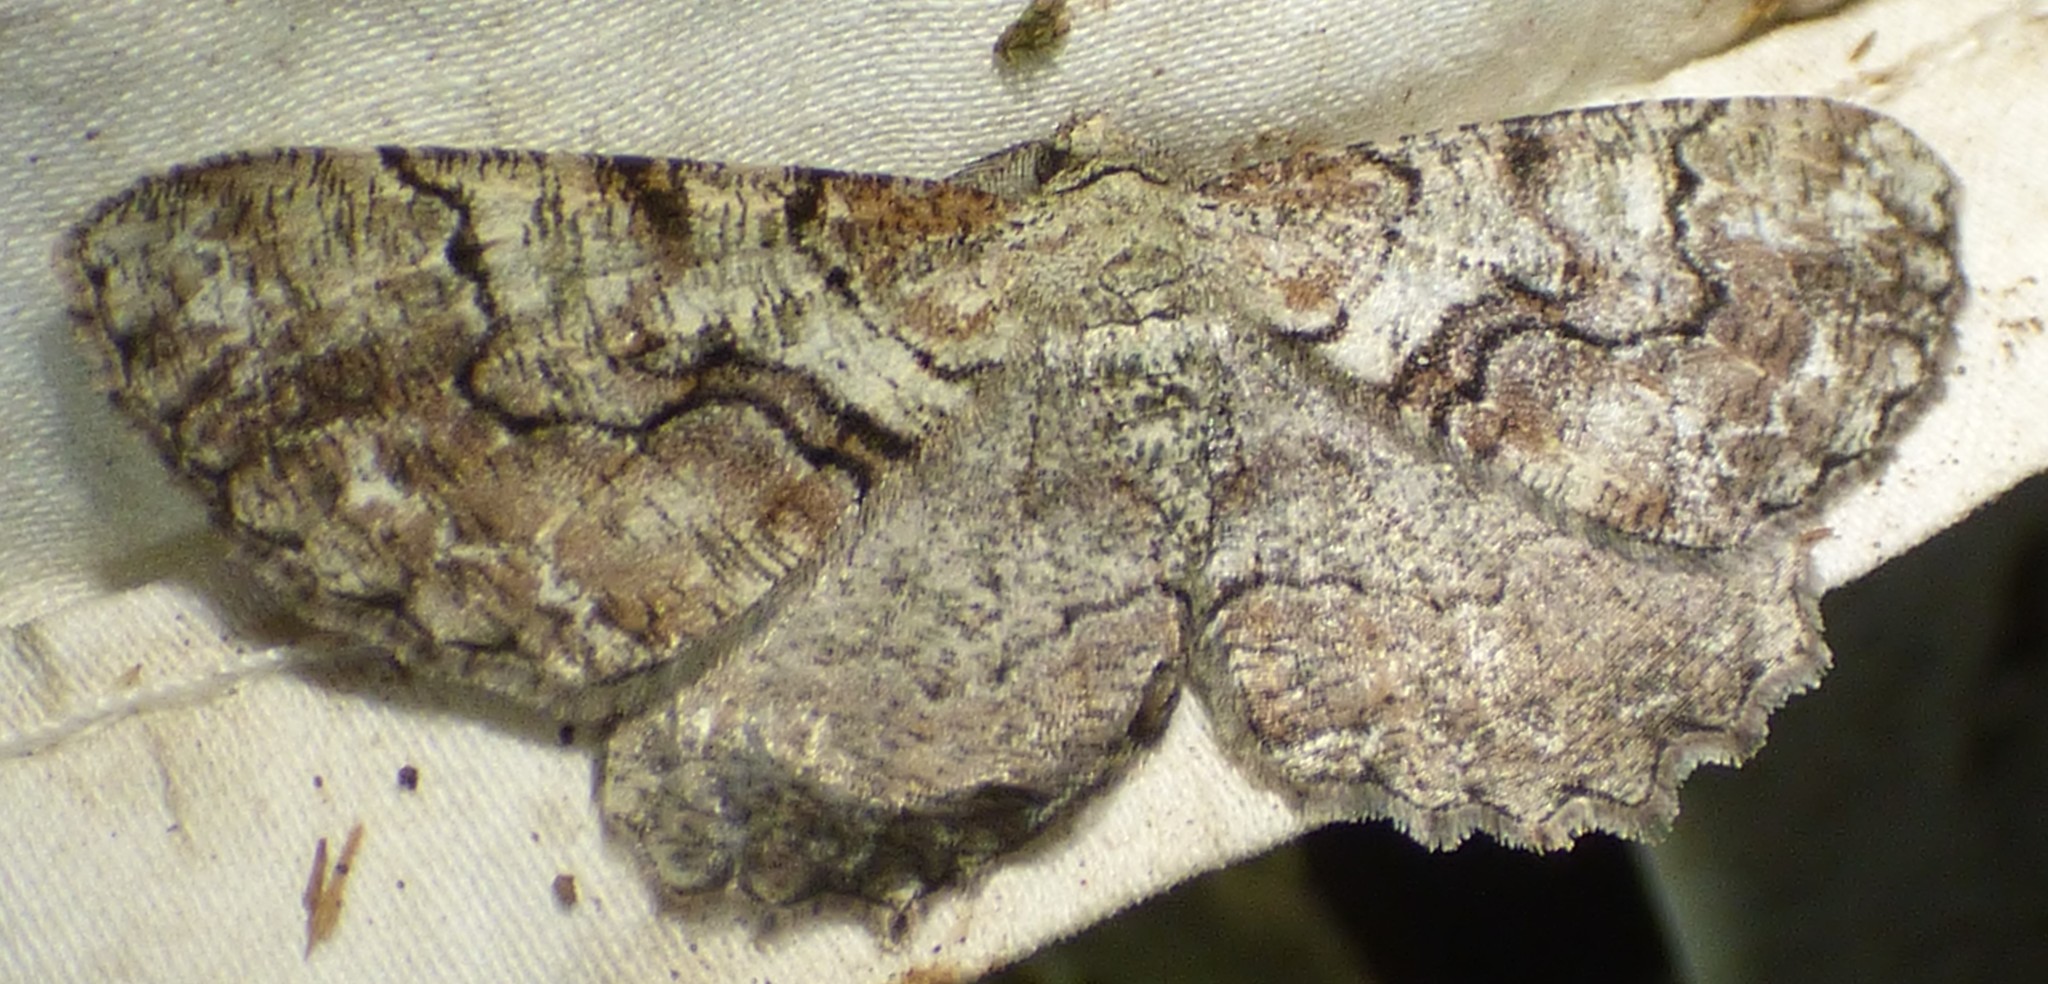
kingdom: Animalia
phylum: Arthropoda
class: Insecta
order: Lepidoptera
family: Geometridae
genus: Cymatophora
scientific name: Cymatophora approximaria
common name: Giant gray moth
